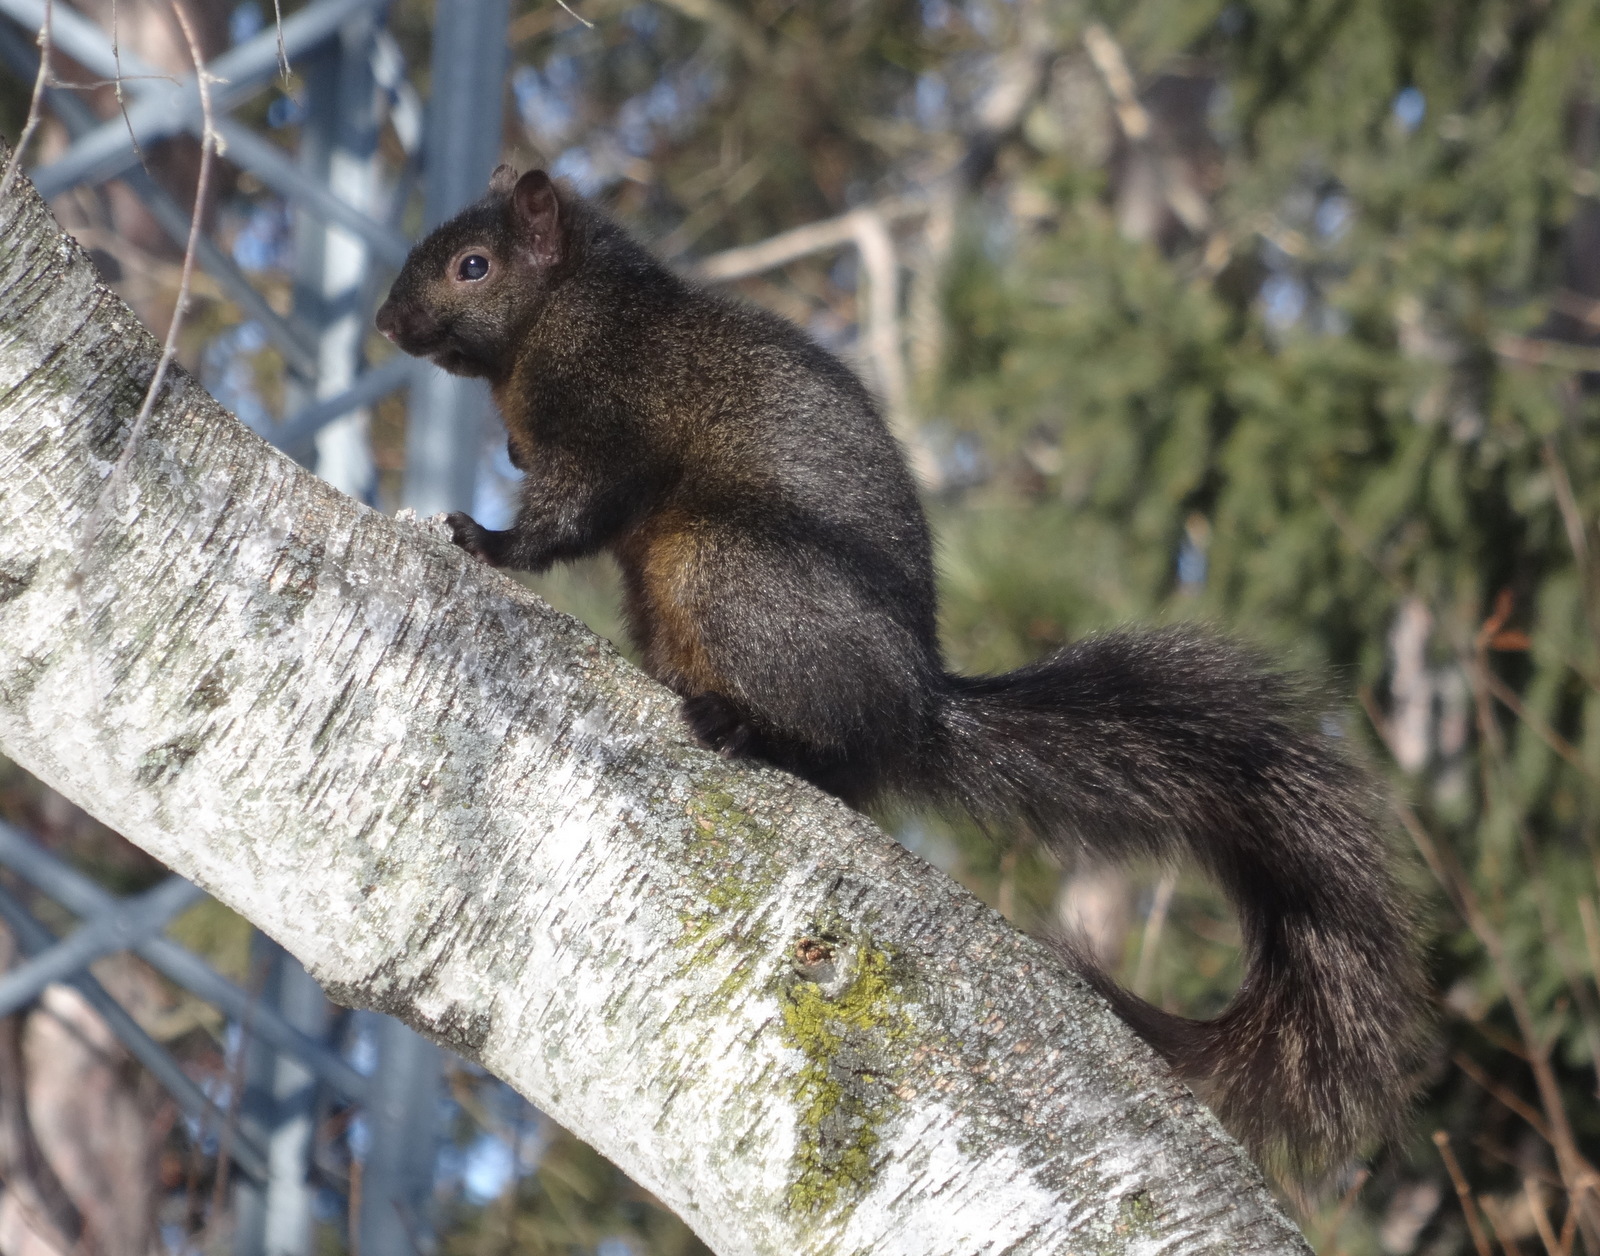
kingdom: Animalia
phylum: Chordata
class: Mammalia
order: Rodentia
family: Sciuridae
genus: Sciurus
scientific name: Sciurus carolinensis
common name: Eastern gray squirrel
